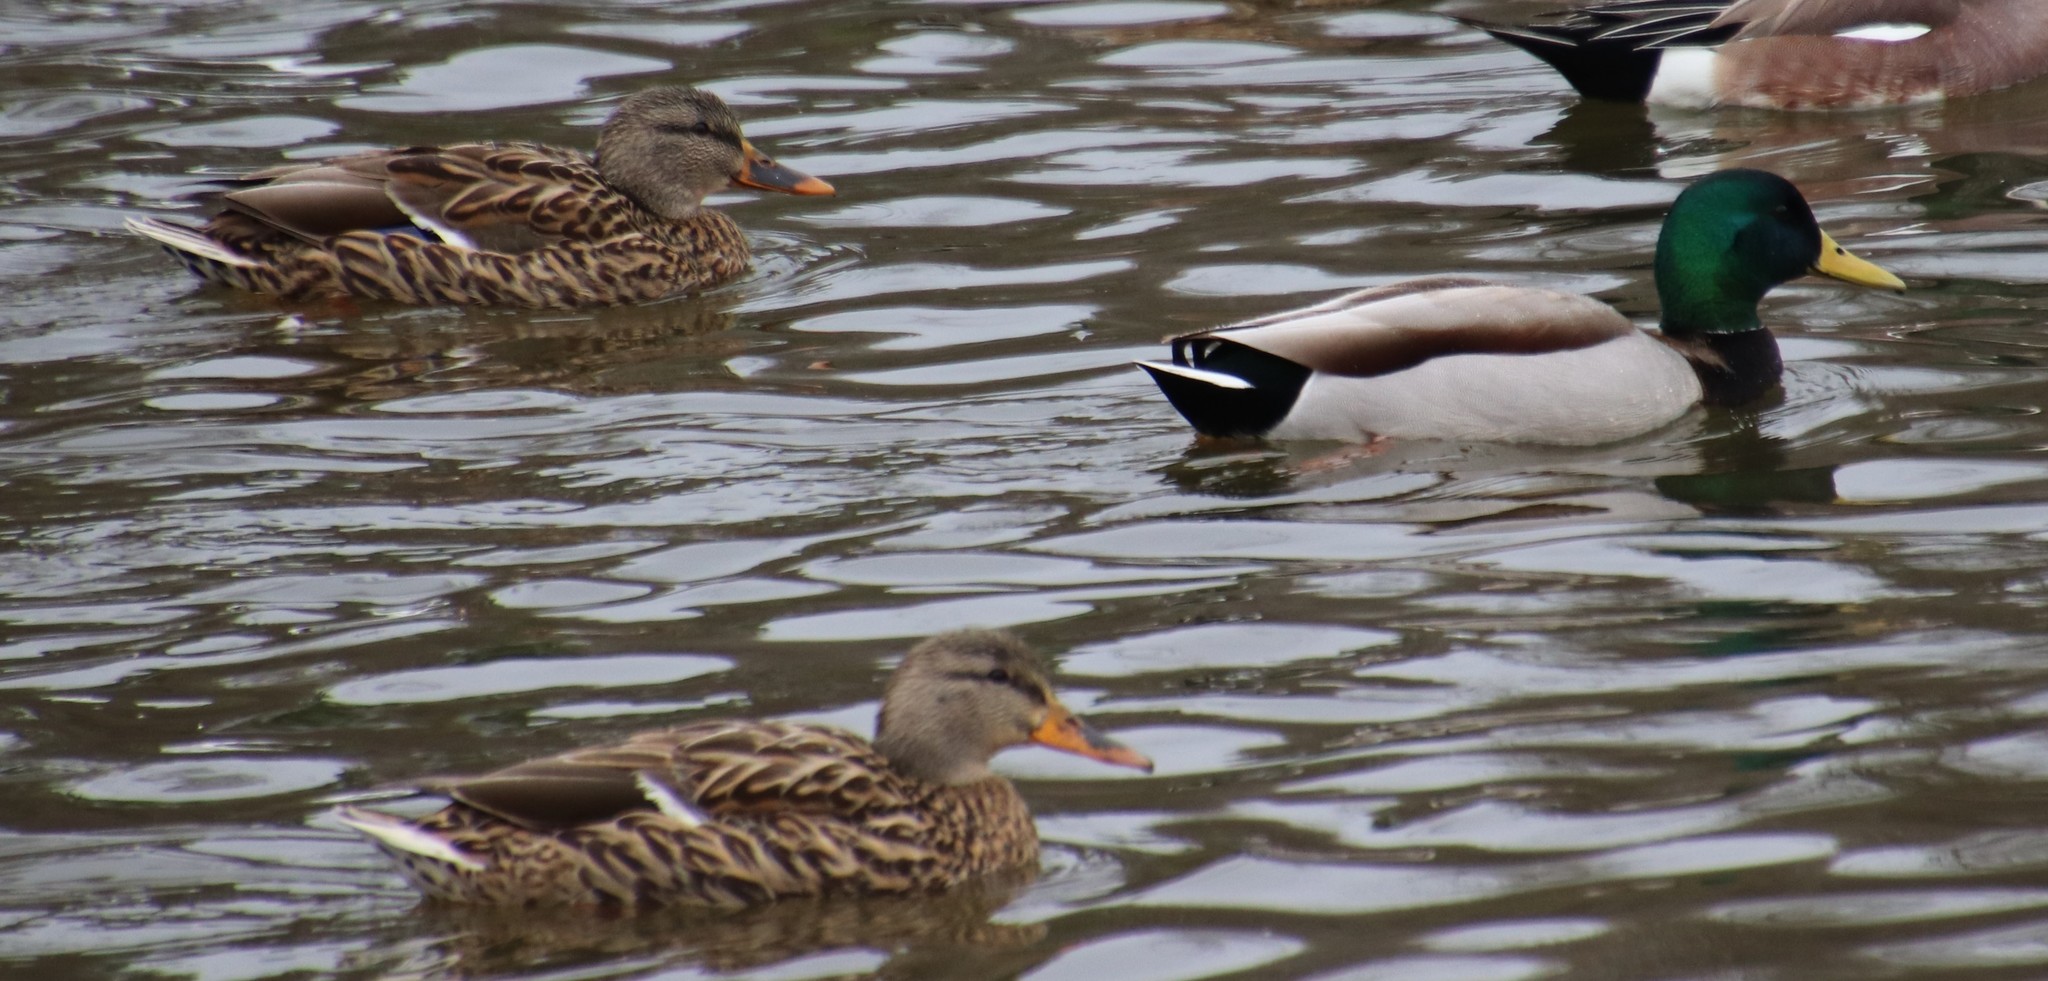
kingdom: Animalia
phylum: Chordata
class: Aves
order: Anseriformes
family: Anatidae
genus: Anas
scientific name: Anas platyrhynchos
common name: Mallard
